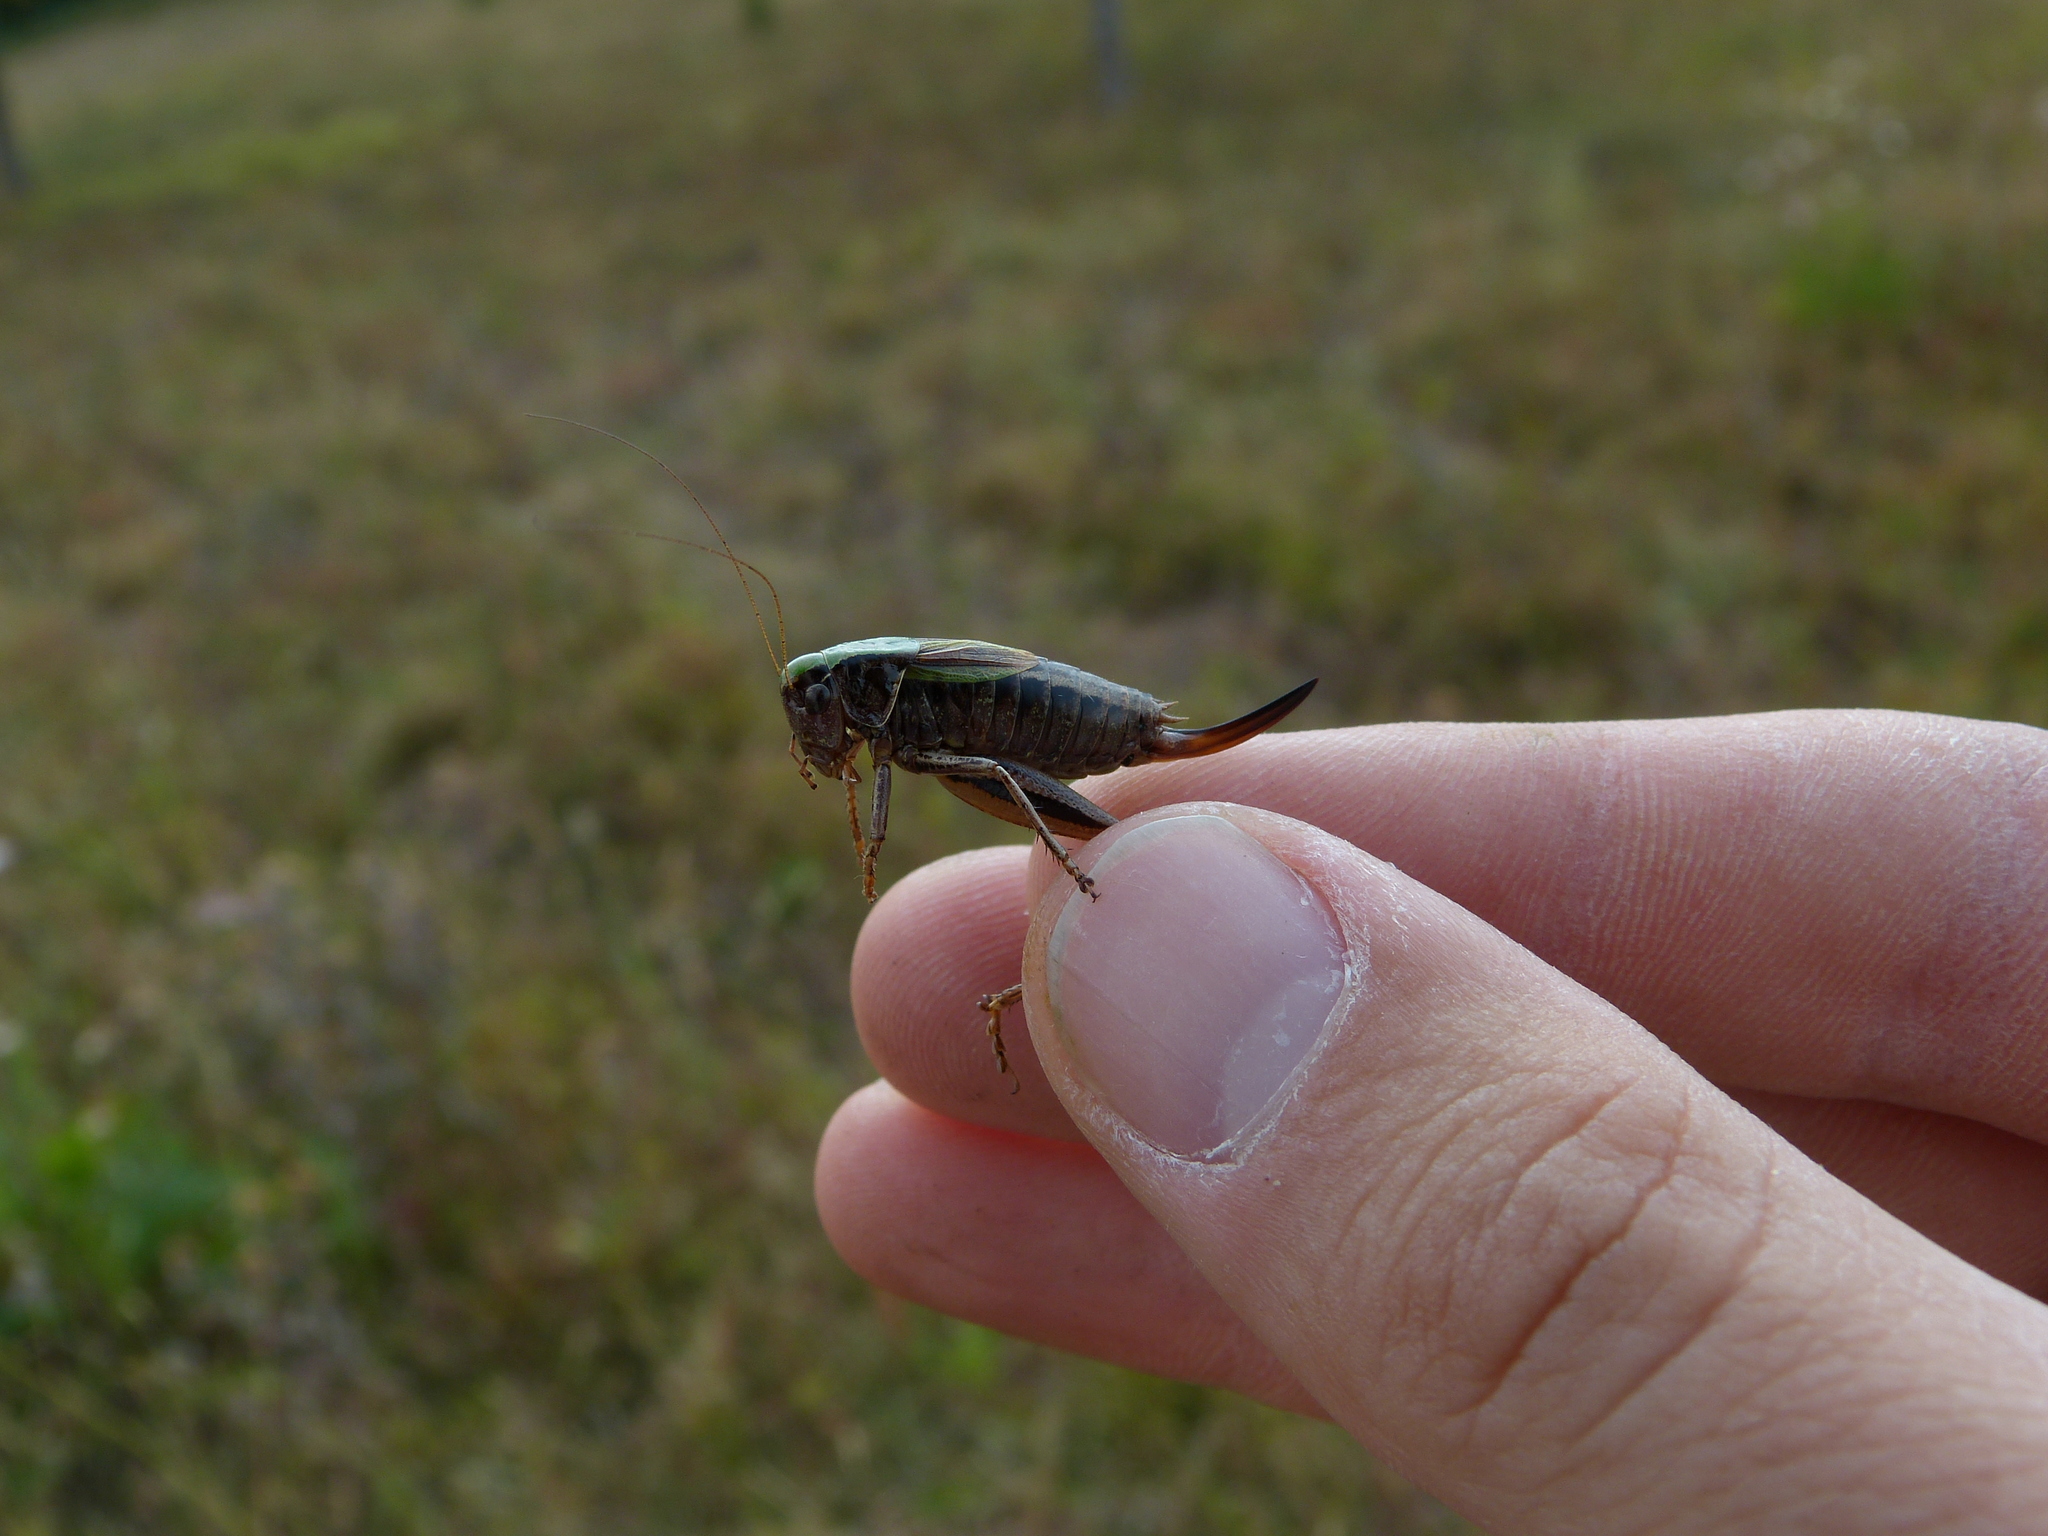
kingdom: Animalia
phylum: Arthropoda
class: Insecta
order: Orthoptera
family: Tettigoniidae
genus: Metrioptera
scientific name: Metrioptera brachyptera
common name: Bog bush-cricket
